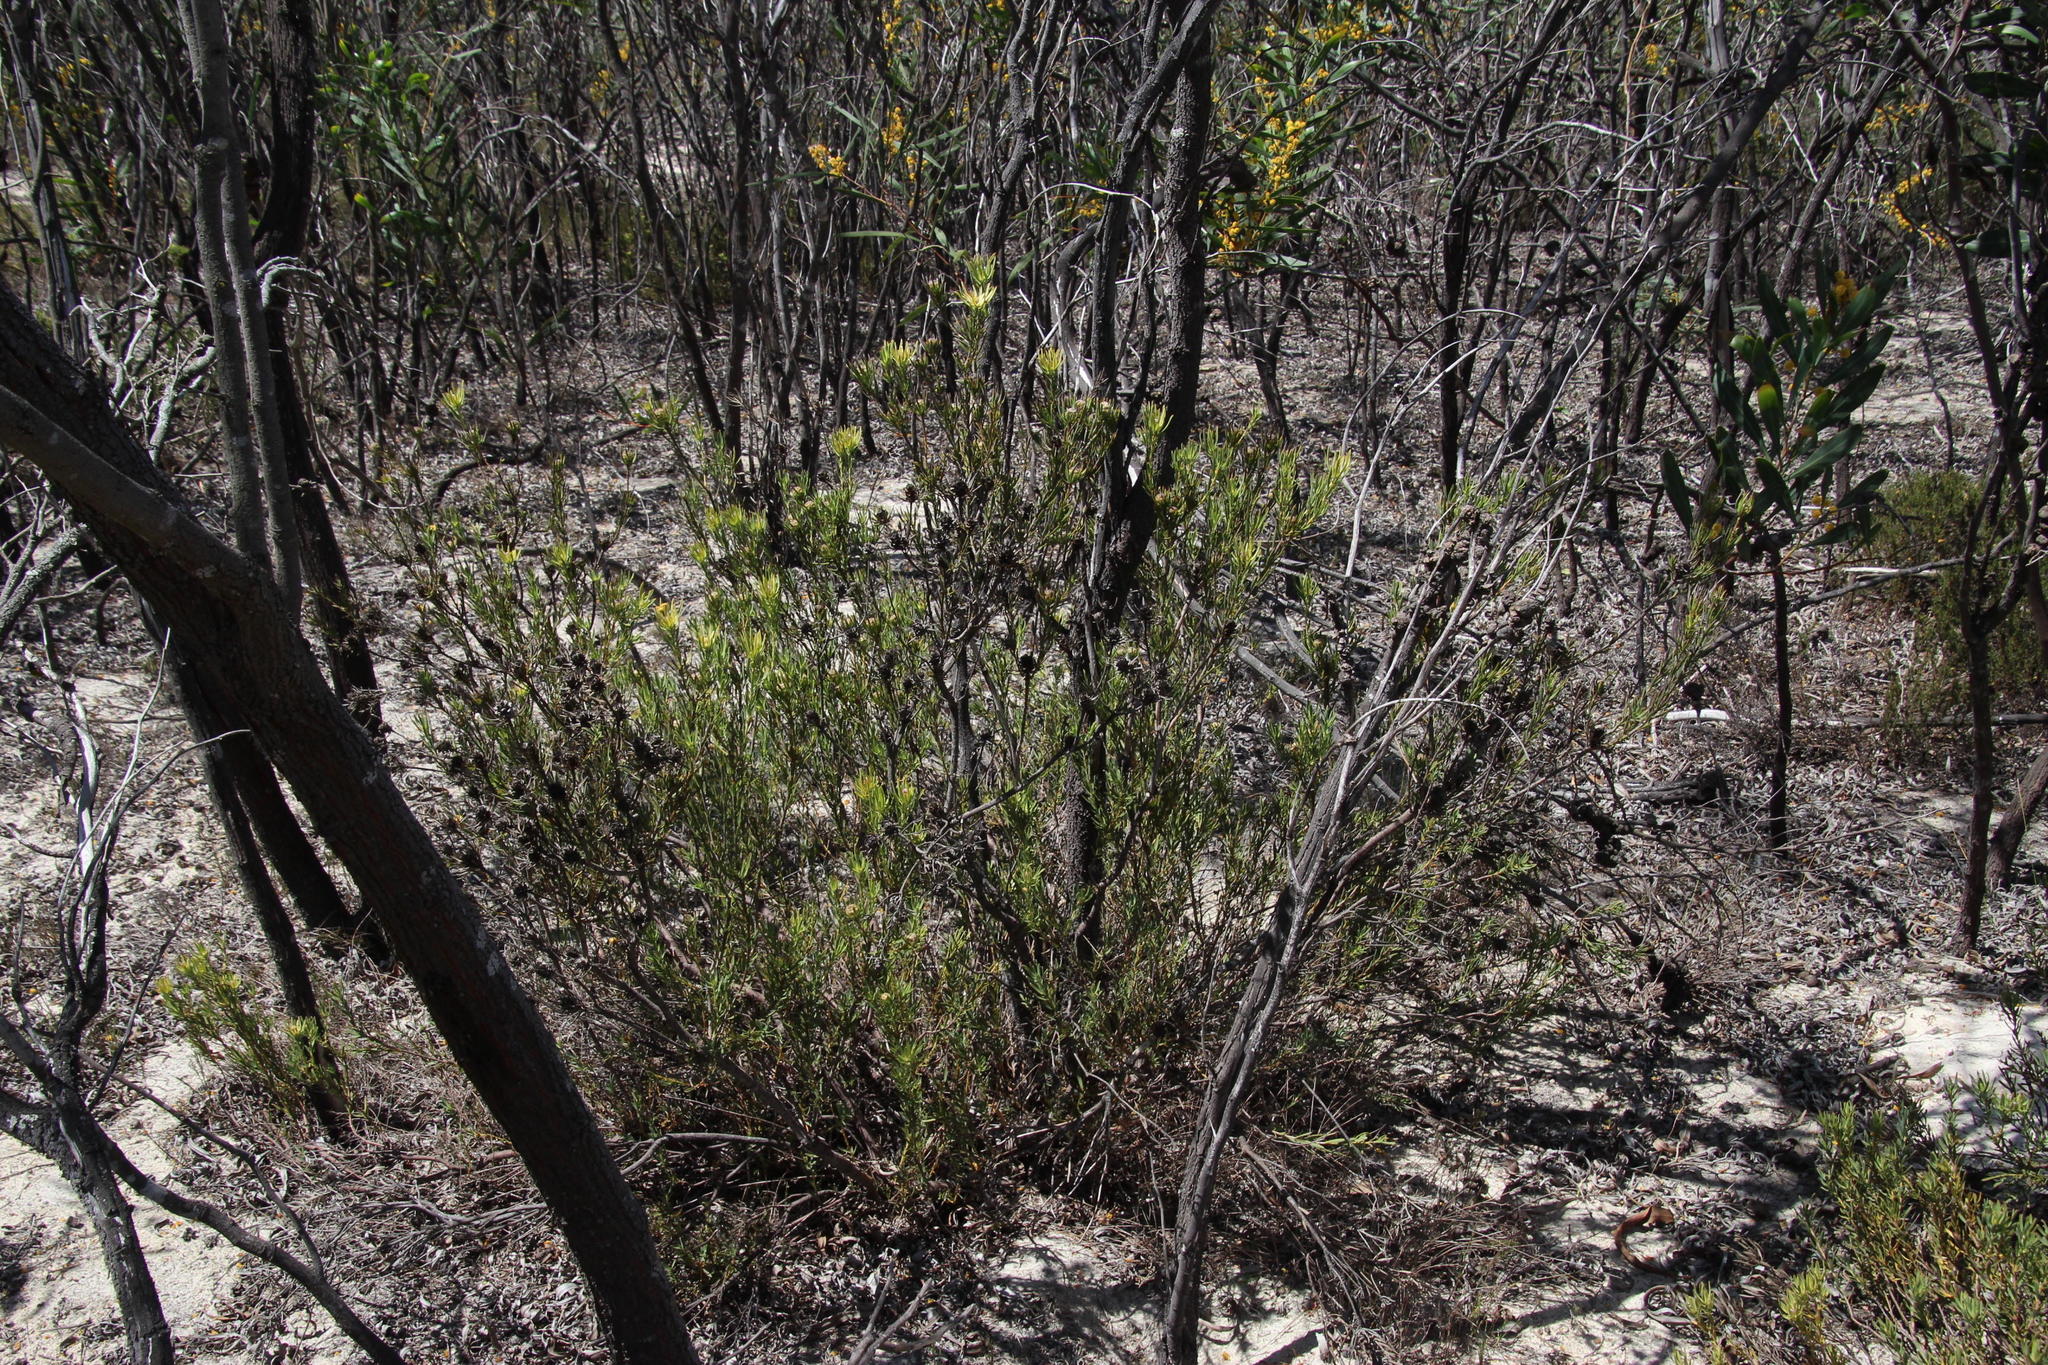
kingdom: Plantae
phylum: Tracheophyta
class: Magnoliopsida
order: Proteales
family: Proteaceae
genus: Leucadendron
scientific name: Leucadendron lanigerum
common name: Shale conebush
